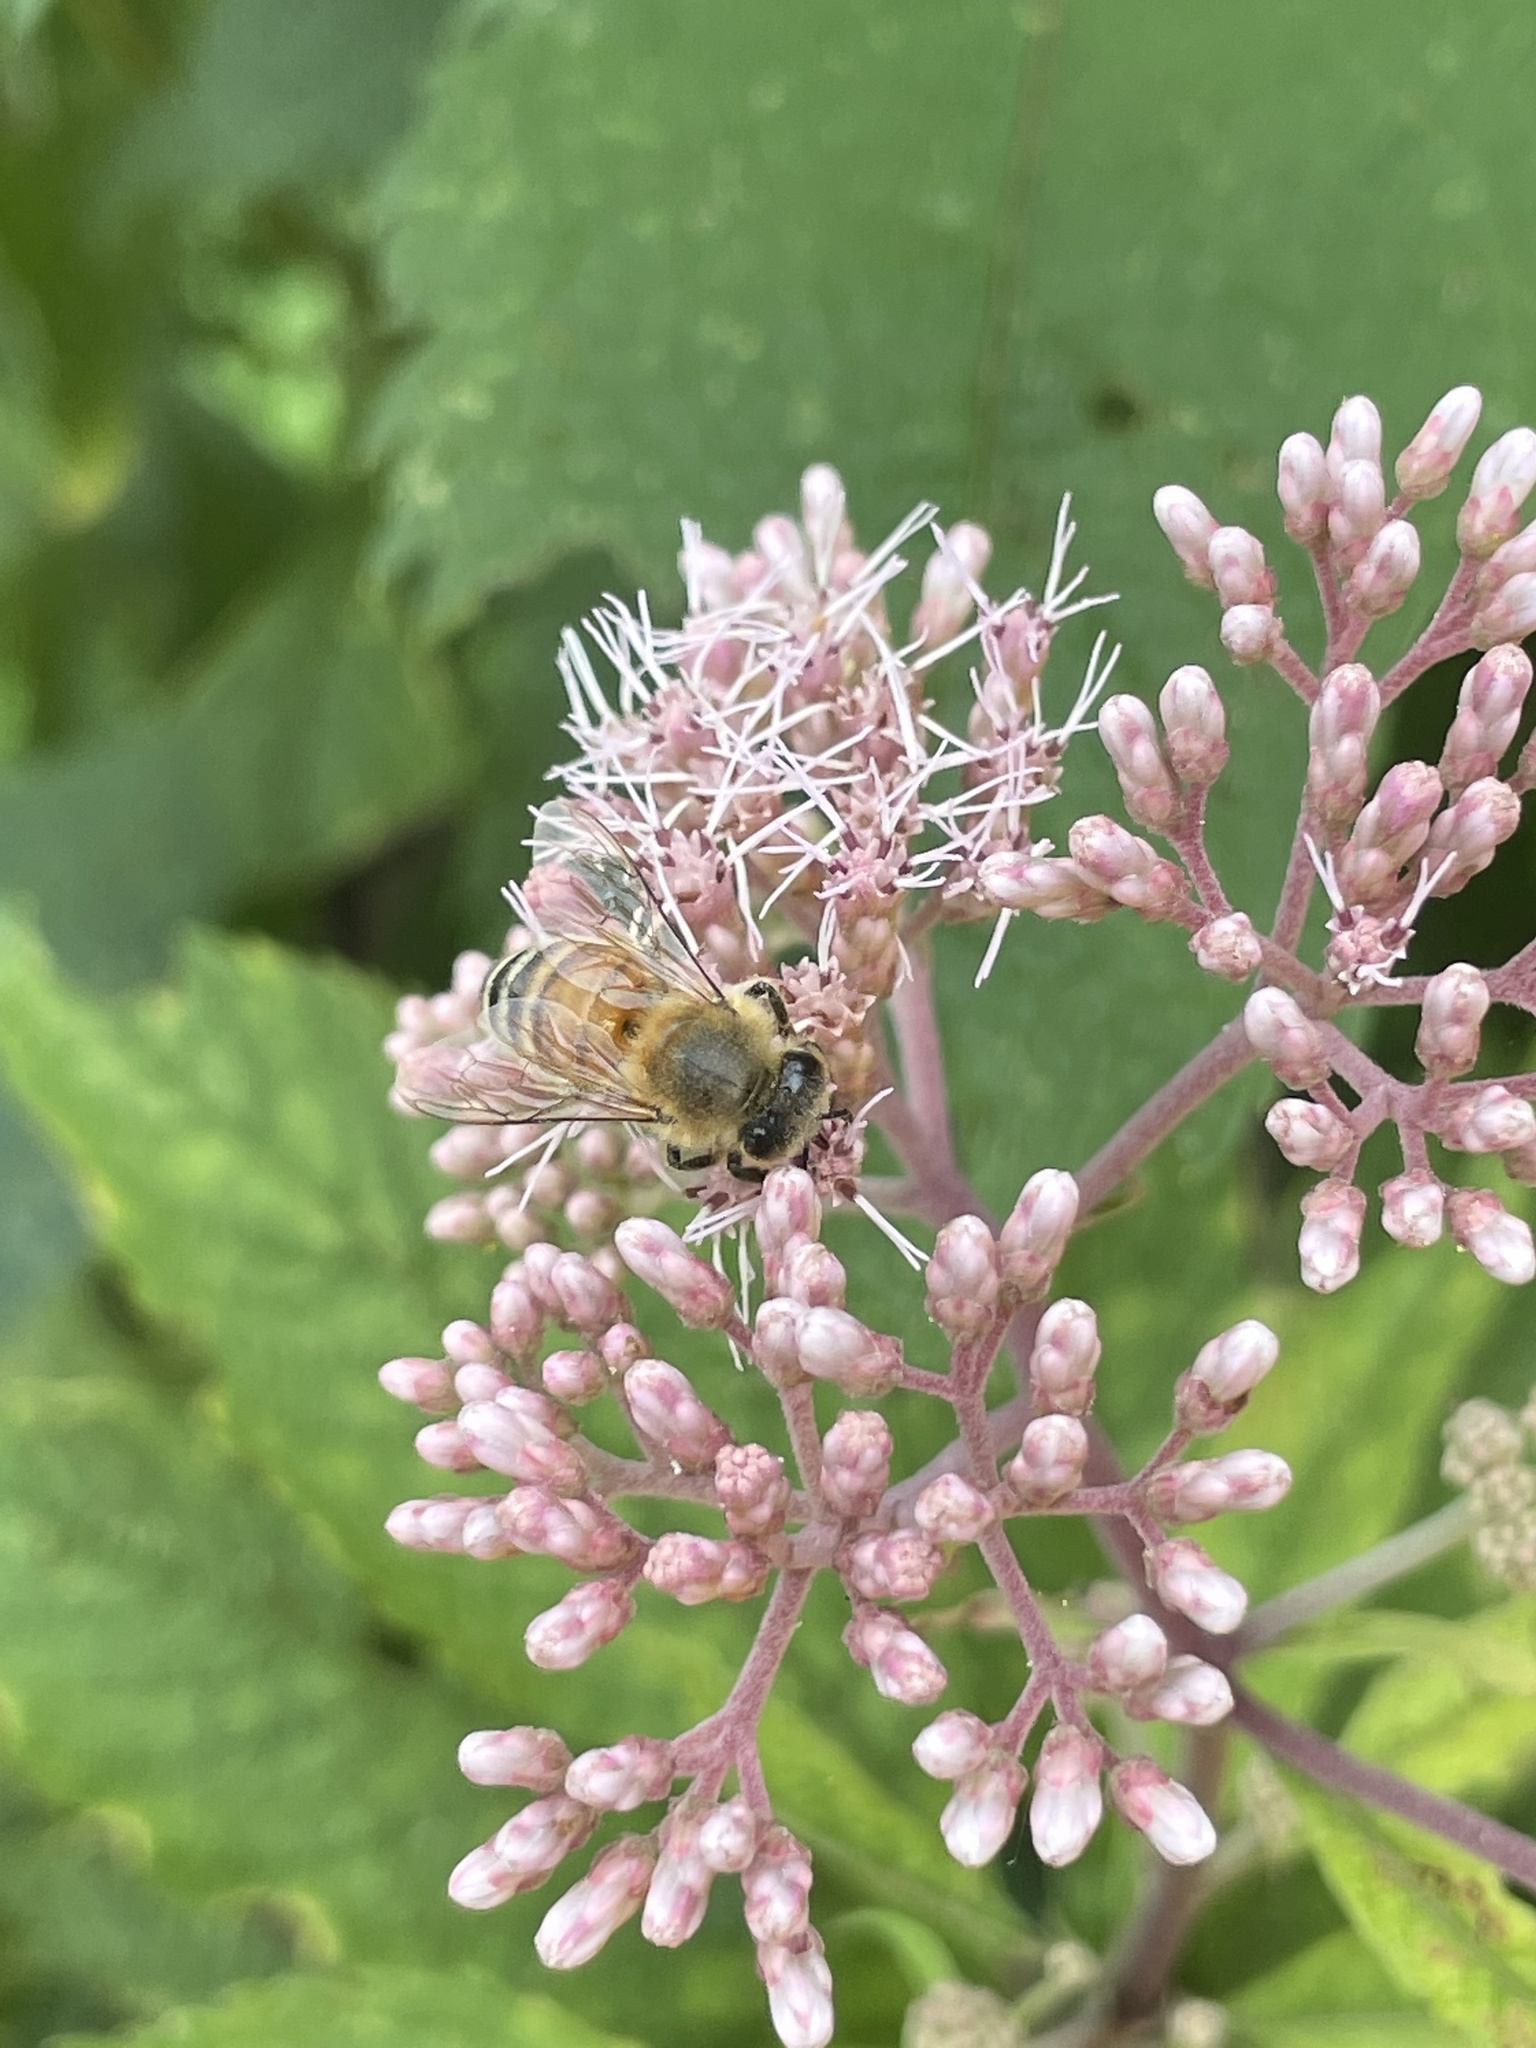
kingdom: Animalia
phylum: Arthropoda
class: Insecta
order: Hymenoptera
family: Apidae
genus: Apis
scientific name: Apis mellifera
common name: Honey bee
